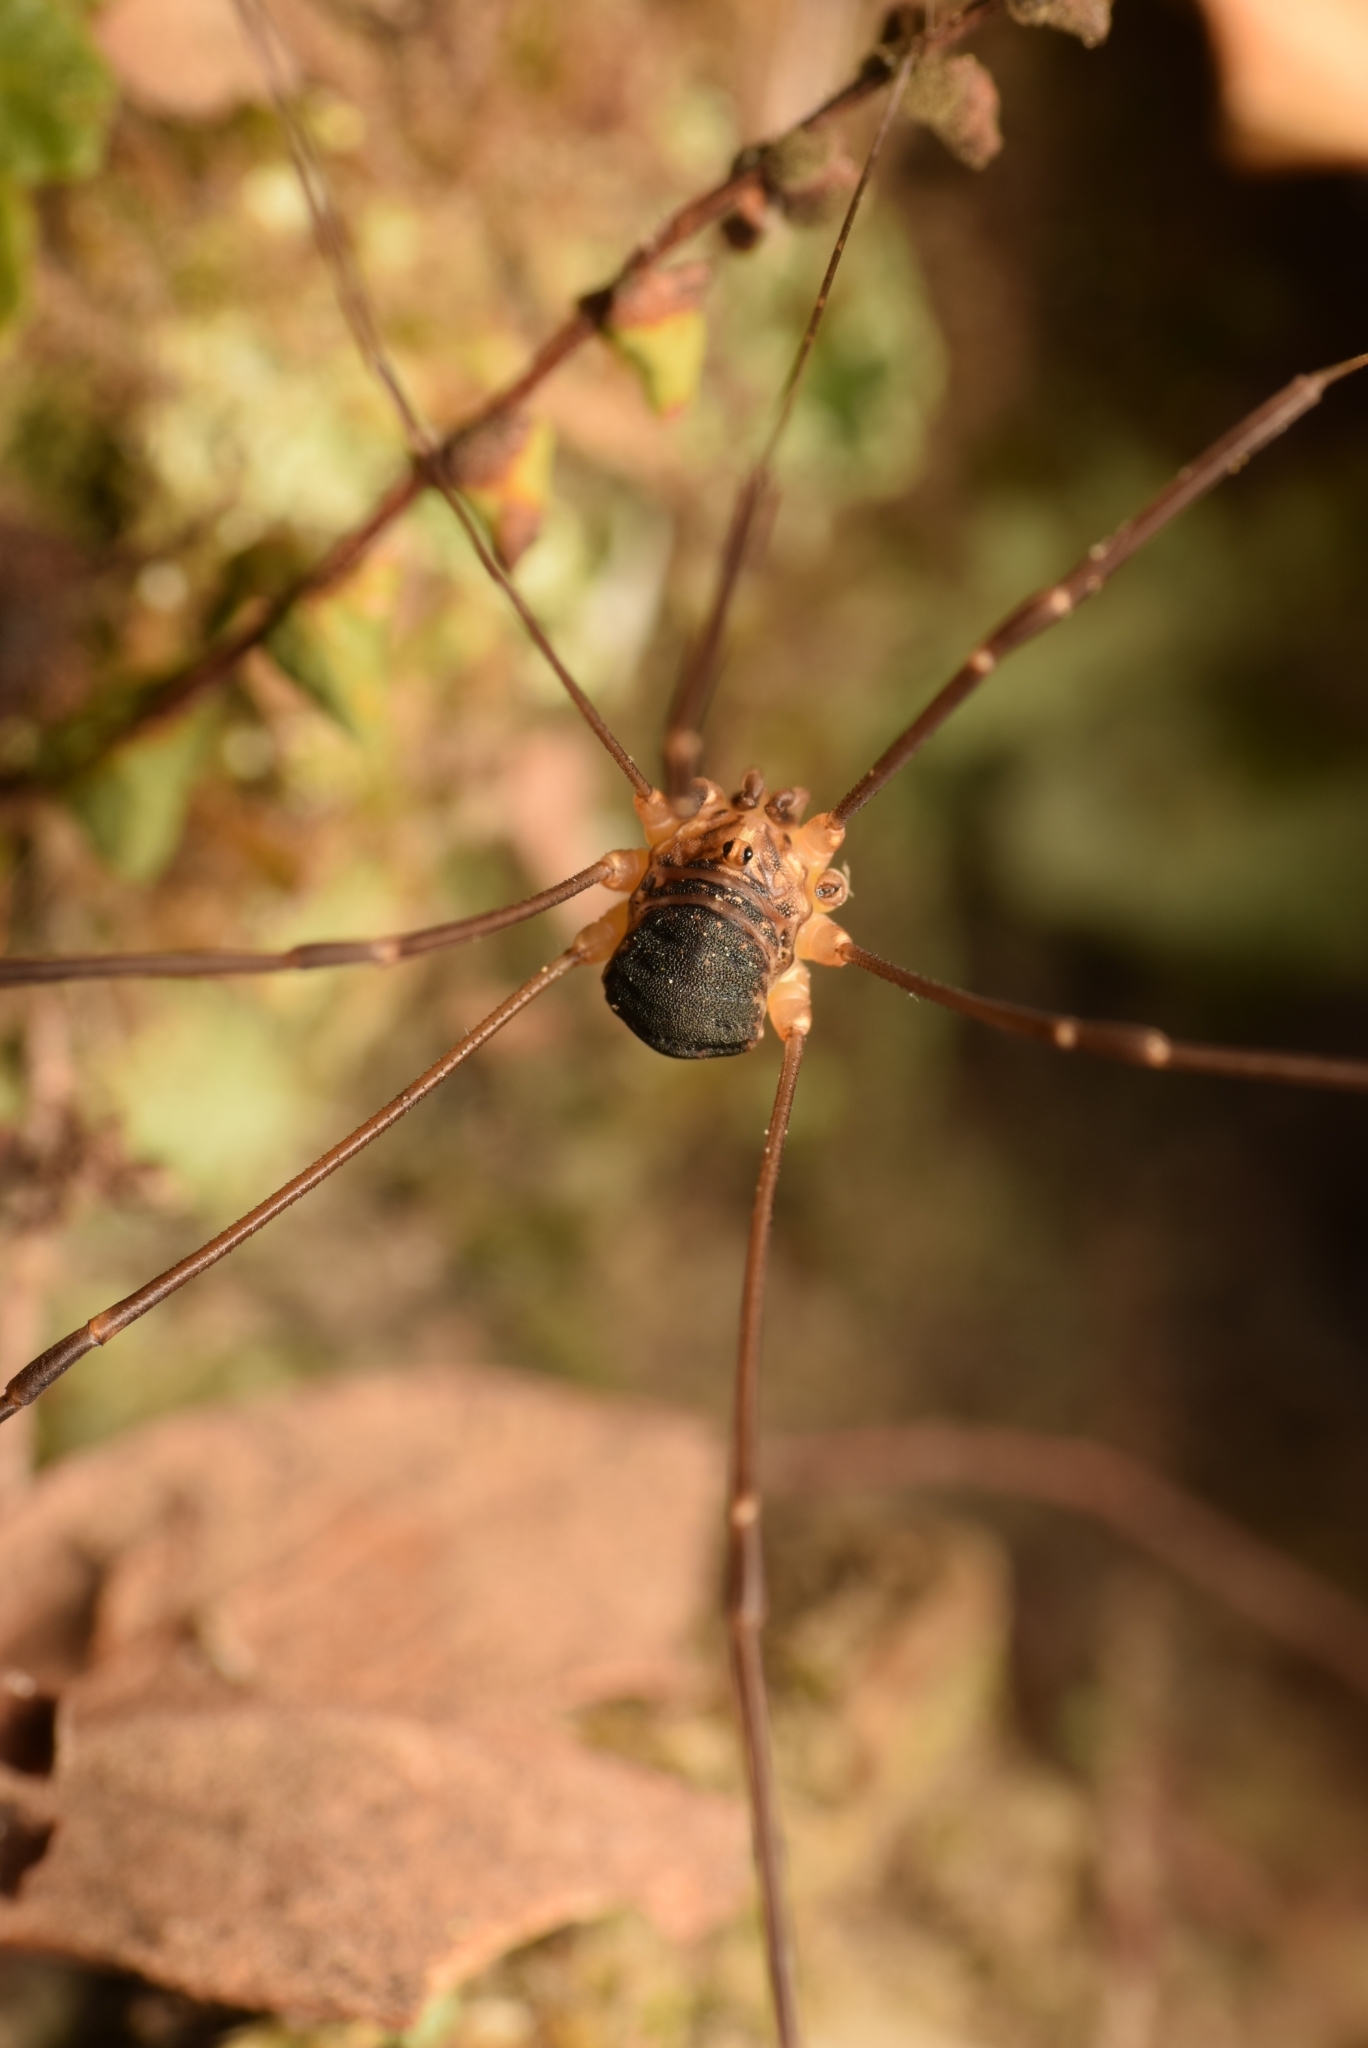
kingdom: Animalia
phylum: Arthropoda
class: Arachnida
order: Opiliones
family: Sclerosomatidae
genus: Nelima
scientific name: Nelima gothica
